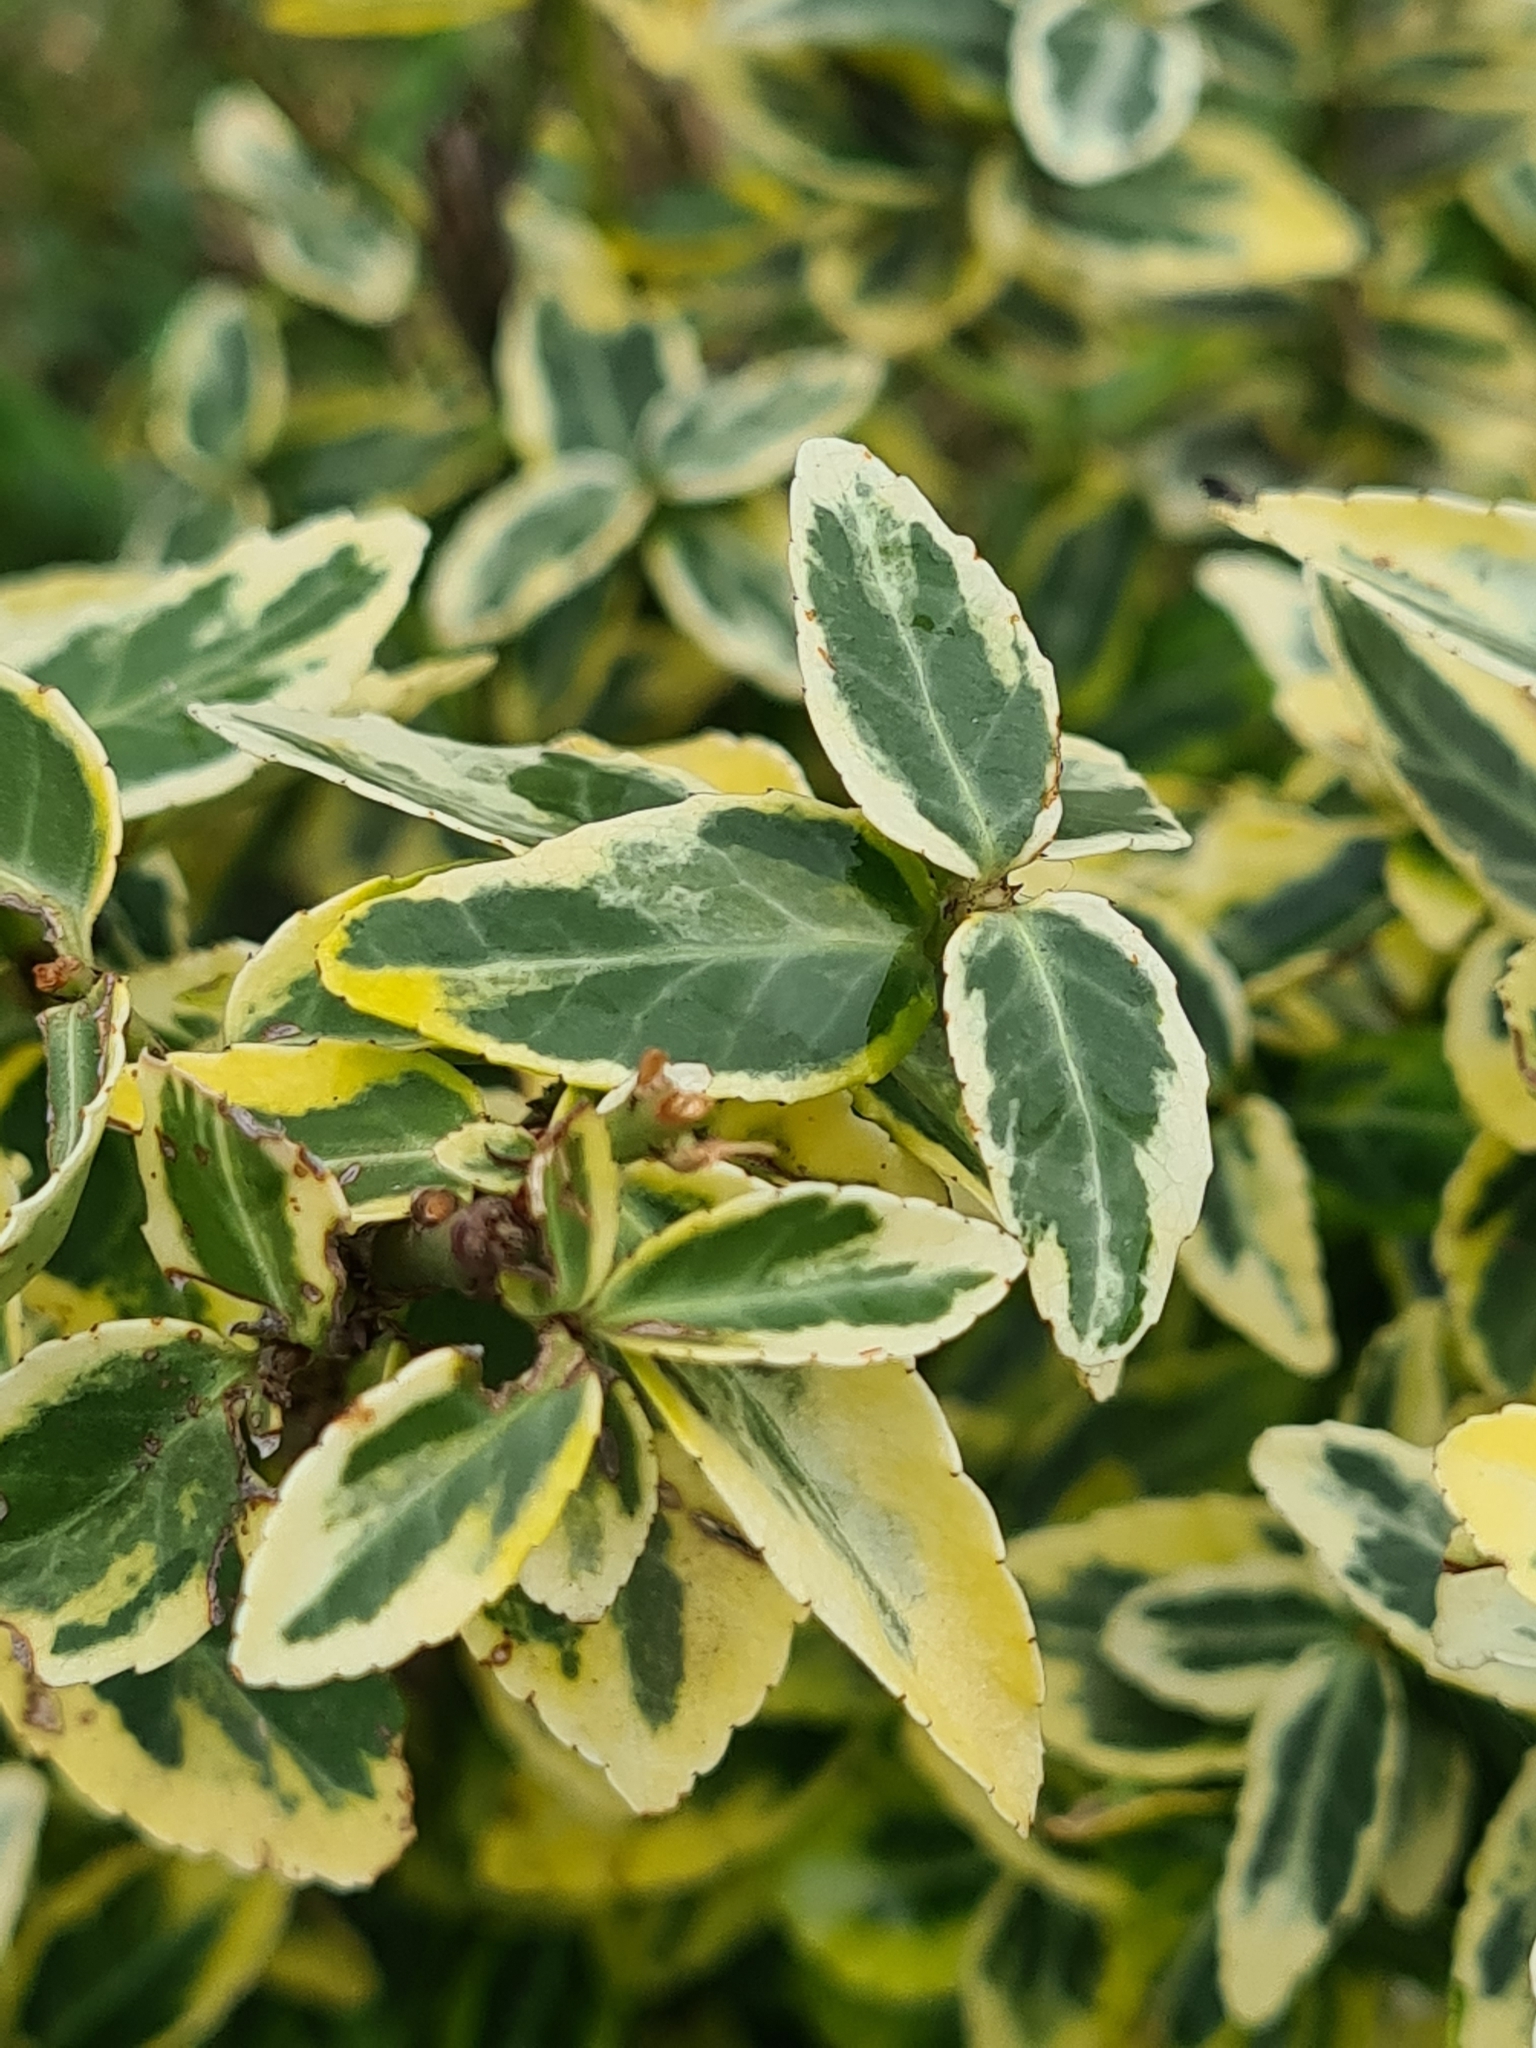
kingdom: Plantae
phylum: Tracheophyta
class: Magnoliopsida
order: Celastrales
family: Celastraceae
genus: Euonymus
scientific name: Euonymus fortunei
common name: Climbing euonymus
